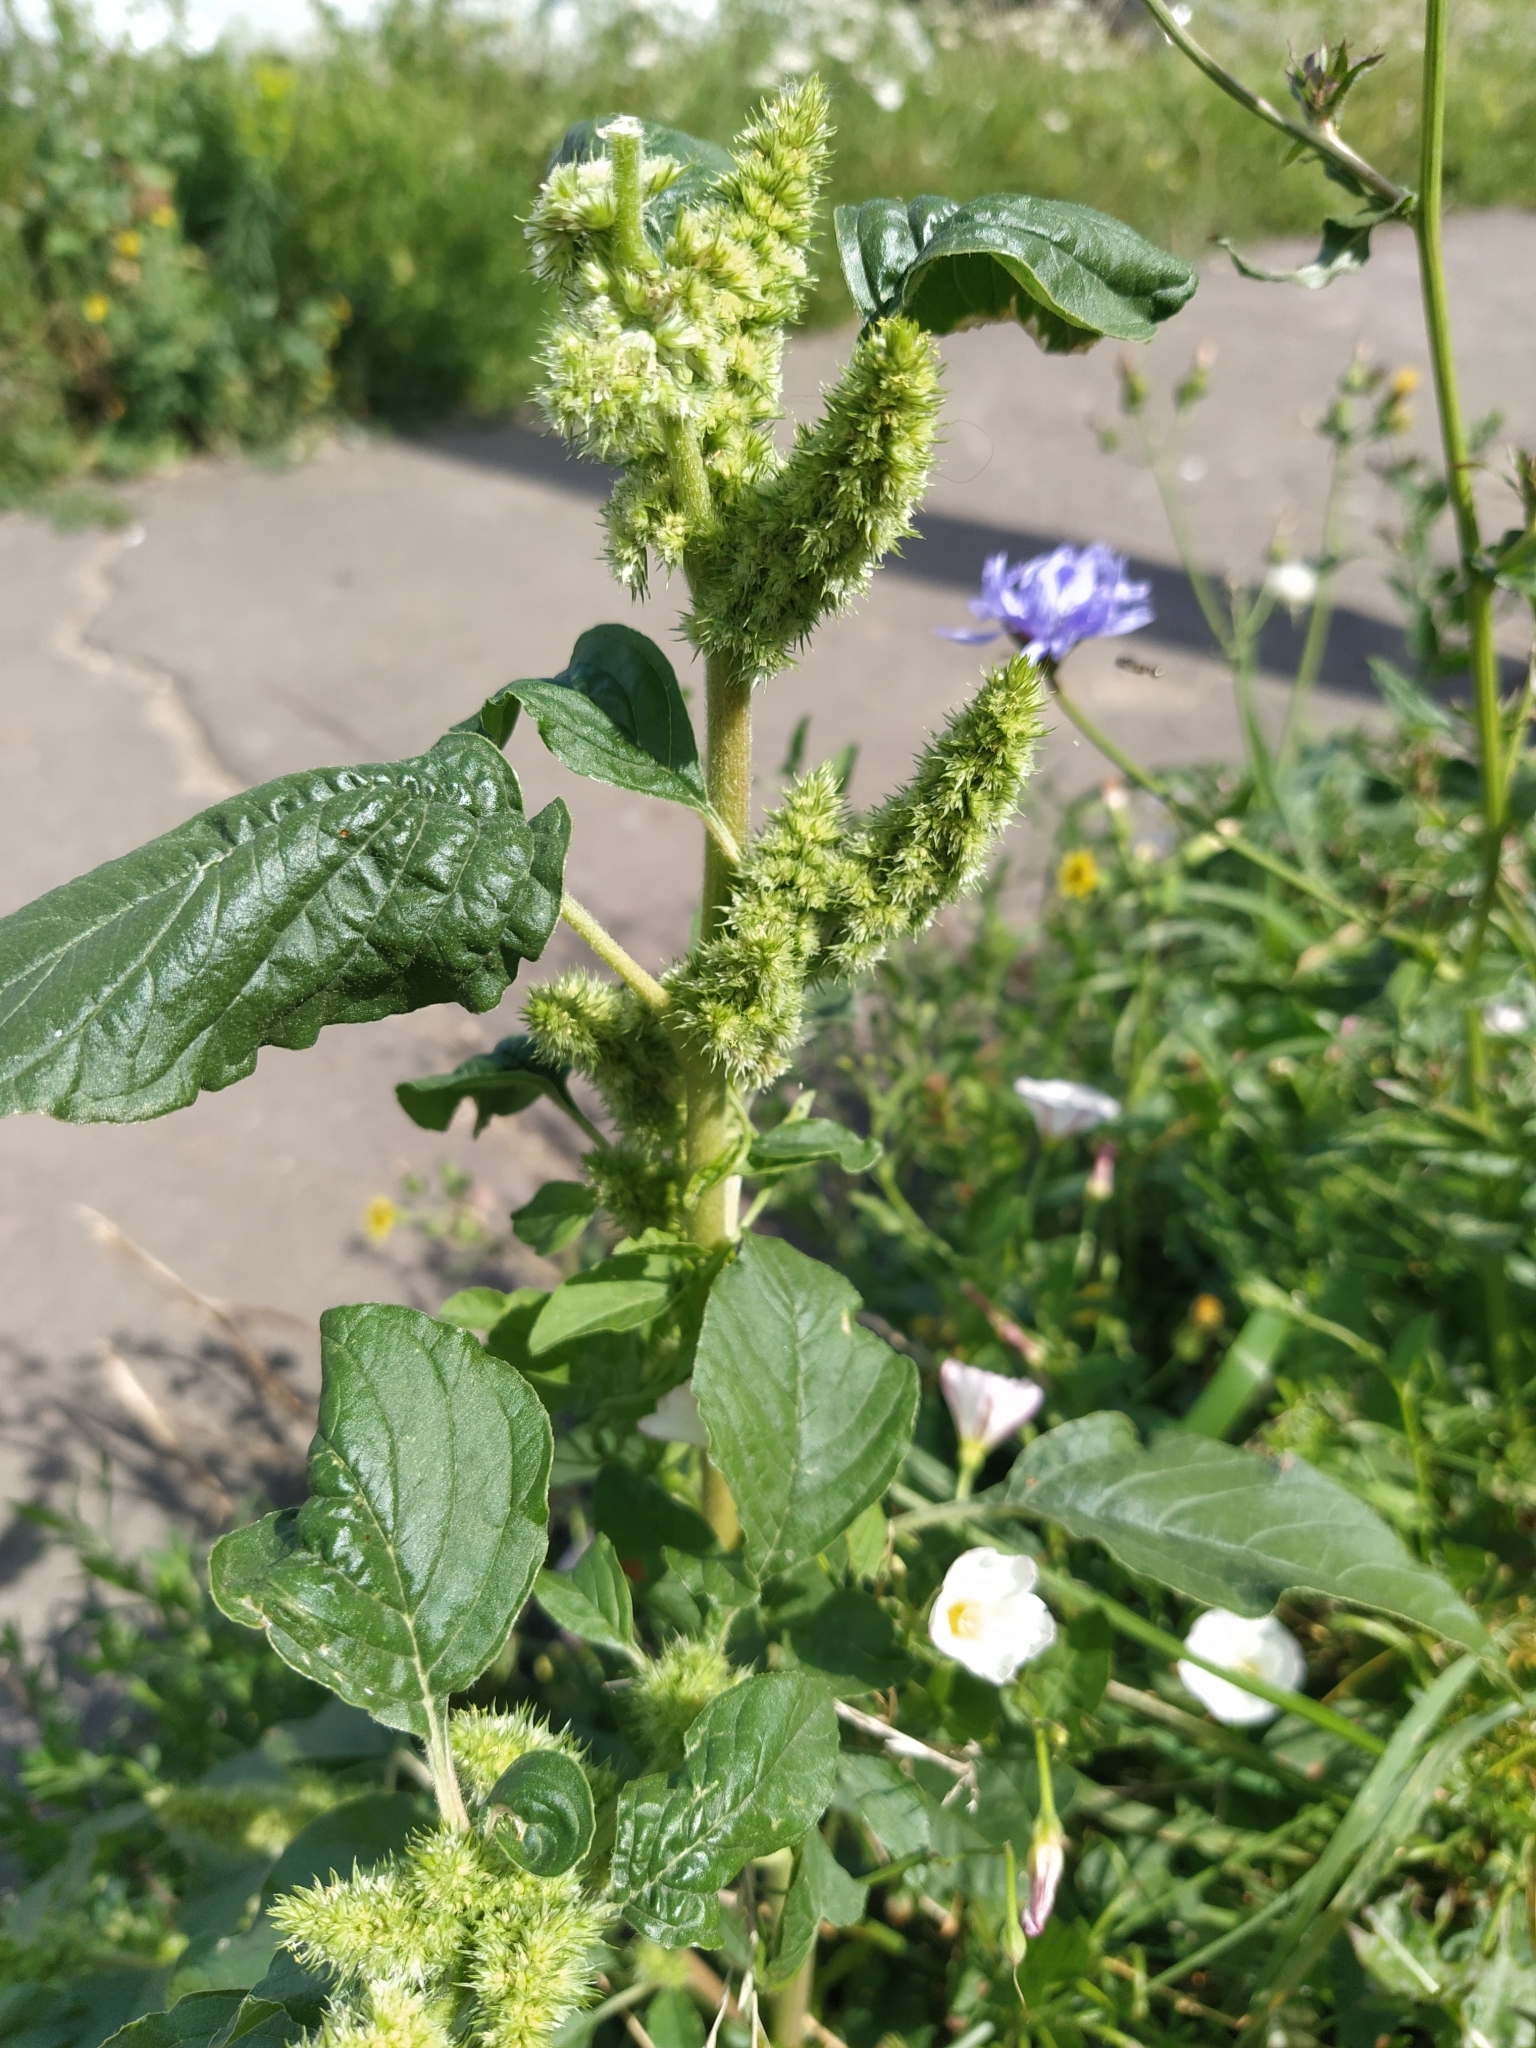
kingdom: Plantae
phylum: Tracheophyta
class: Magnoliopsida
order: Caryophyllales
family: Amaranthaceae
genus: Amaranthus
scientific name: Amaranthus retroflexus
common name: Redroot amaranth
